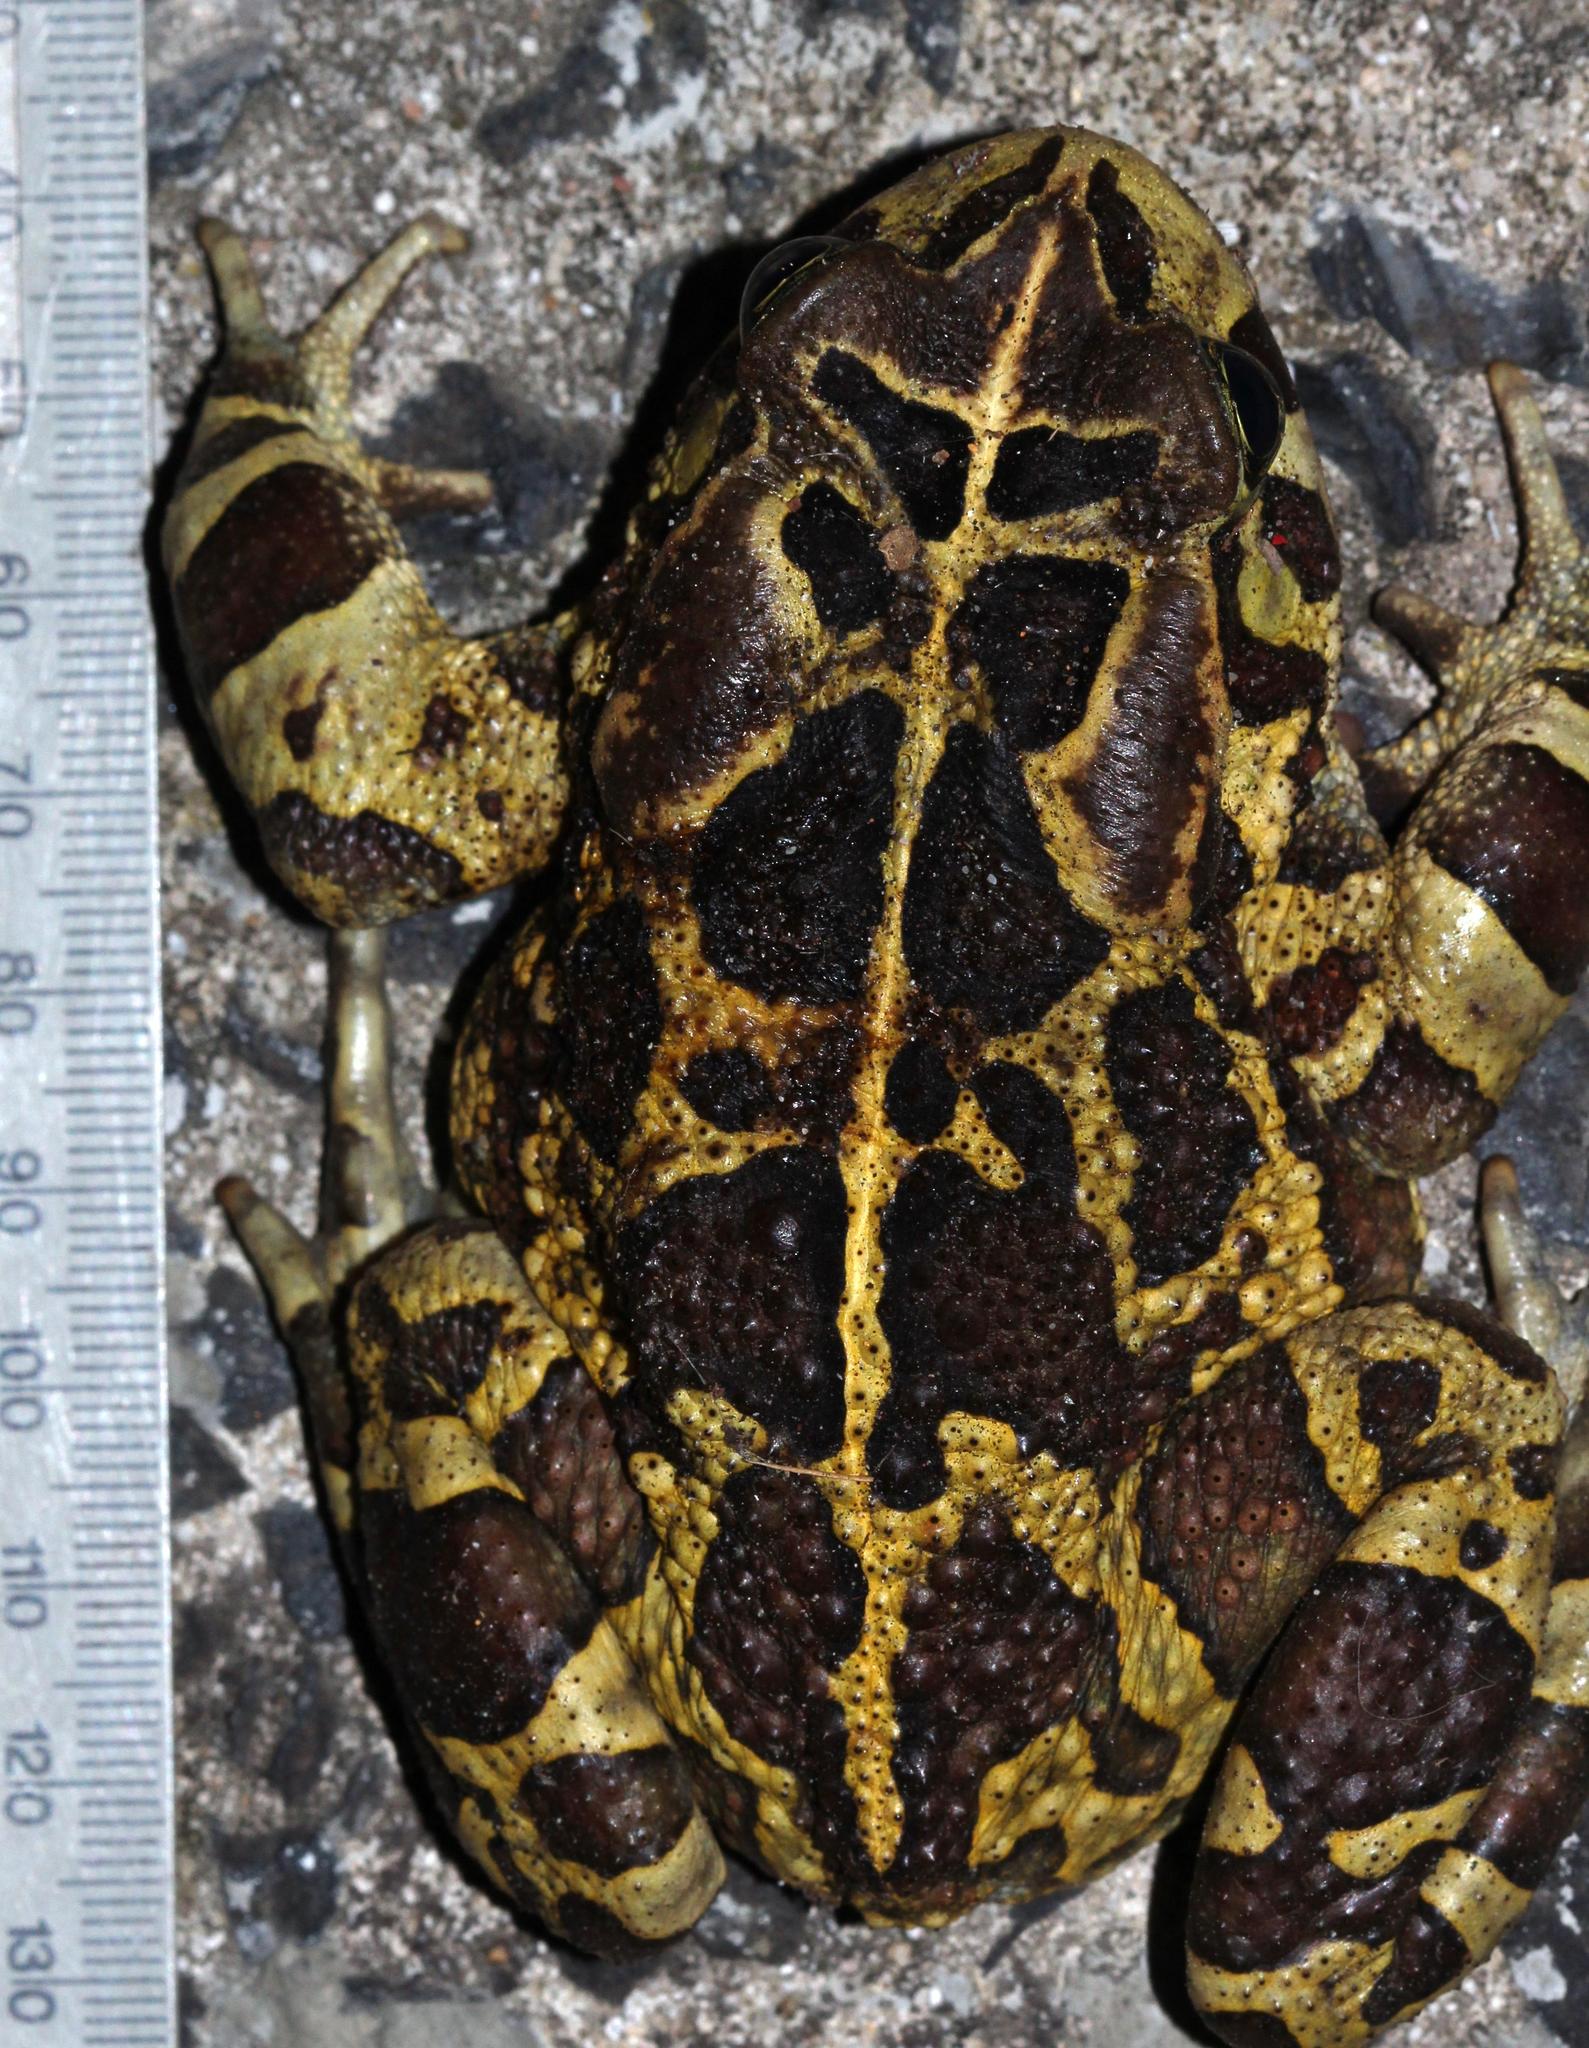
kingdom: Animalia
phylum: Chordata
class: Amphibia
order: Anura
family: Bufonidae
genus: Sclerophrys
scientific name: Sclerophrys pantherina
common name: Panther toad
